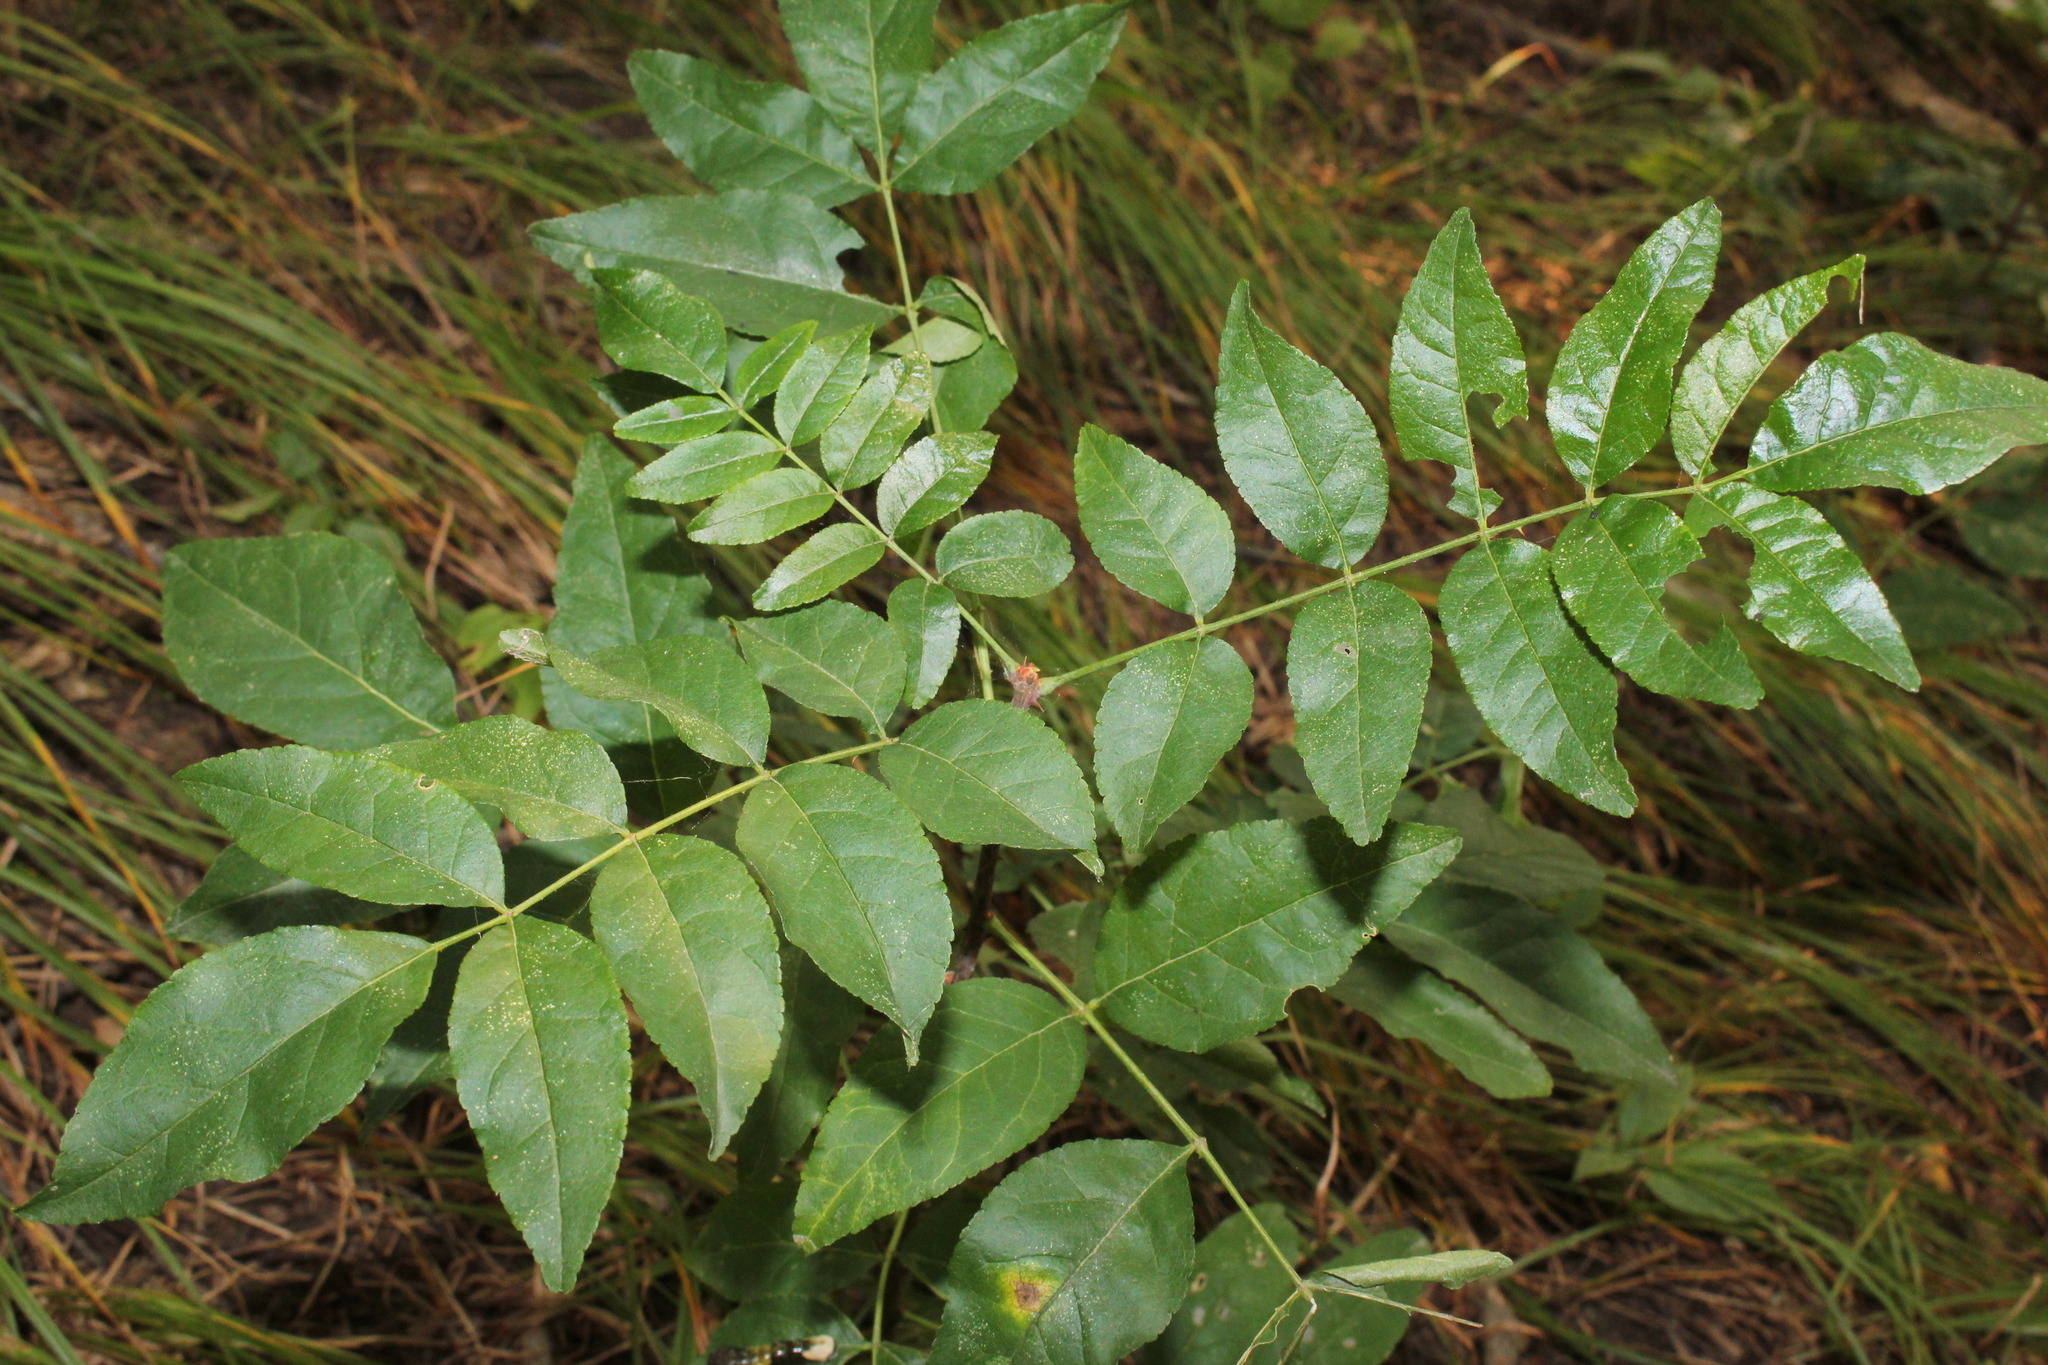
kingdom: Plantae
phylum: Tracheophyta
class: Magnoliopsida
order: Sapindales
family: Rutaceae
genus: Zanthoxylum
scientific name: Zanthoxylum americanum
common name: Northern prickly-ash
